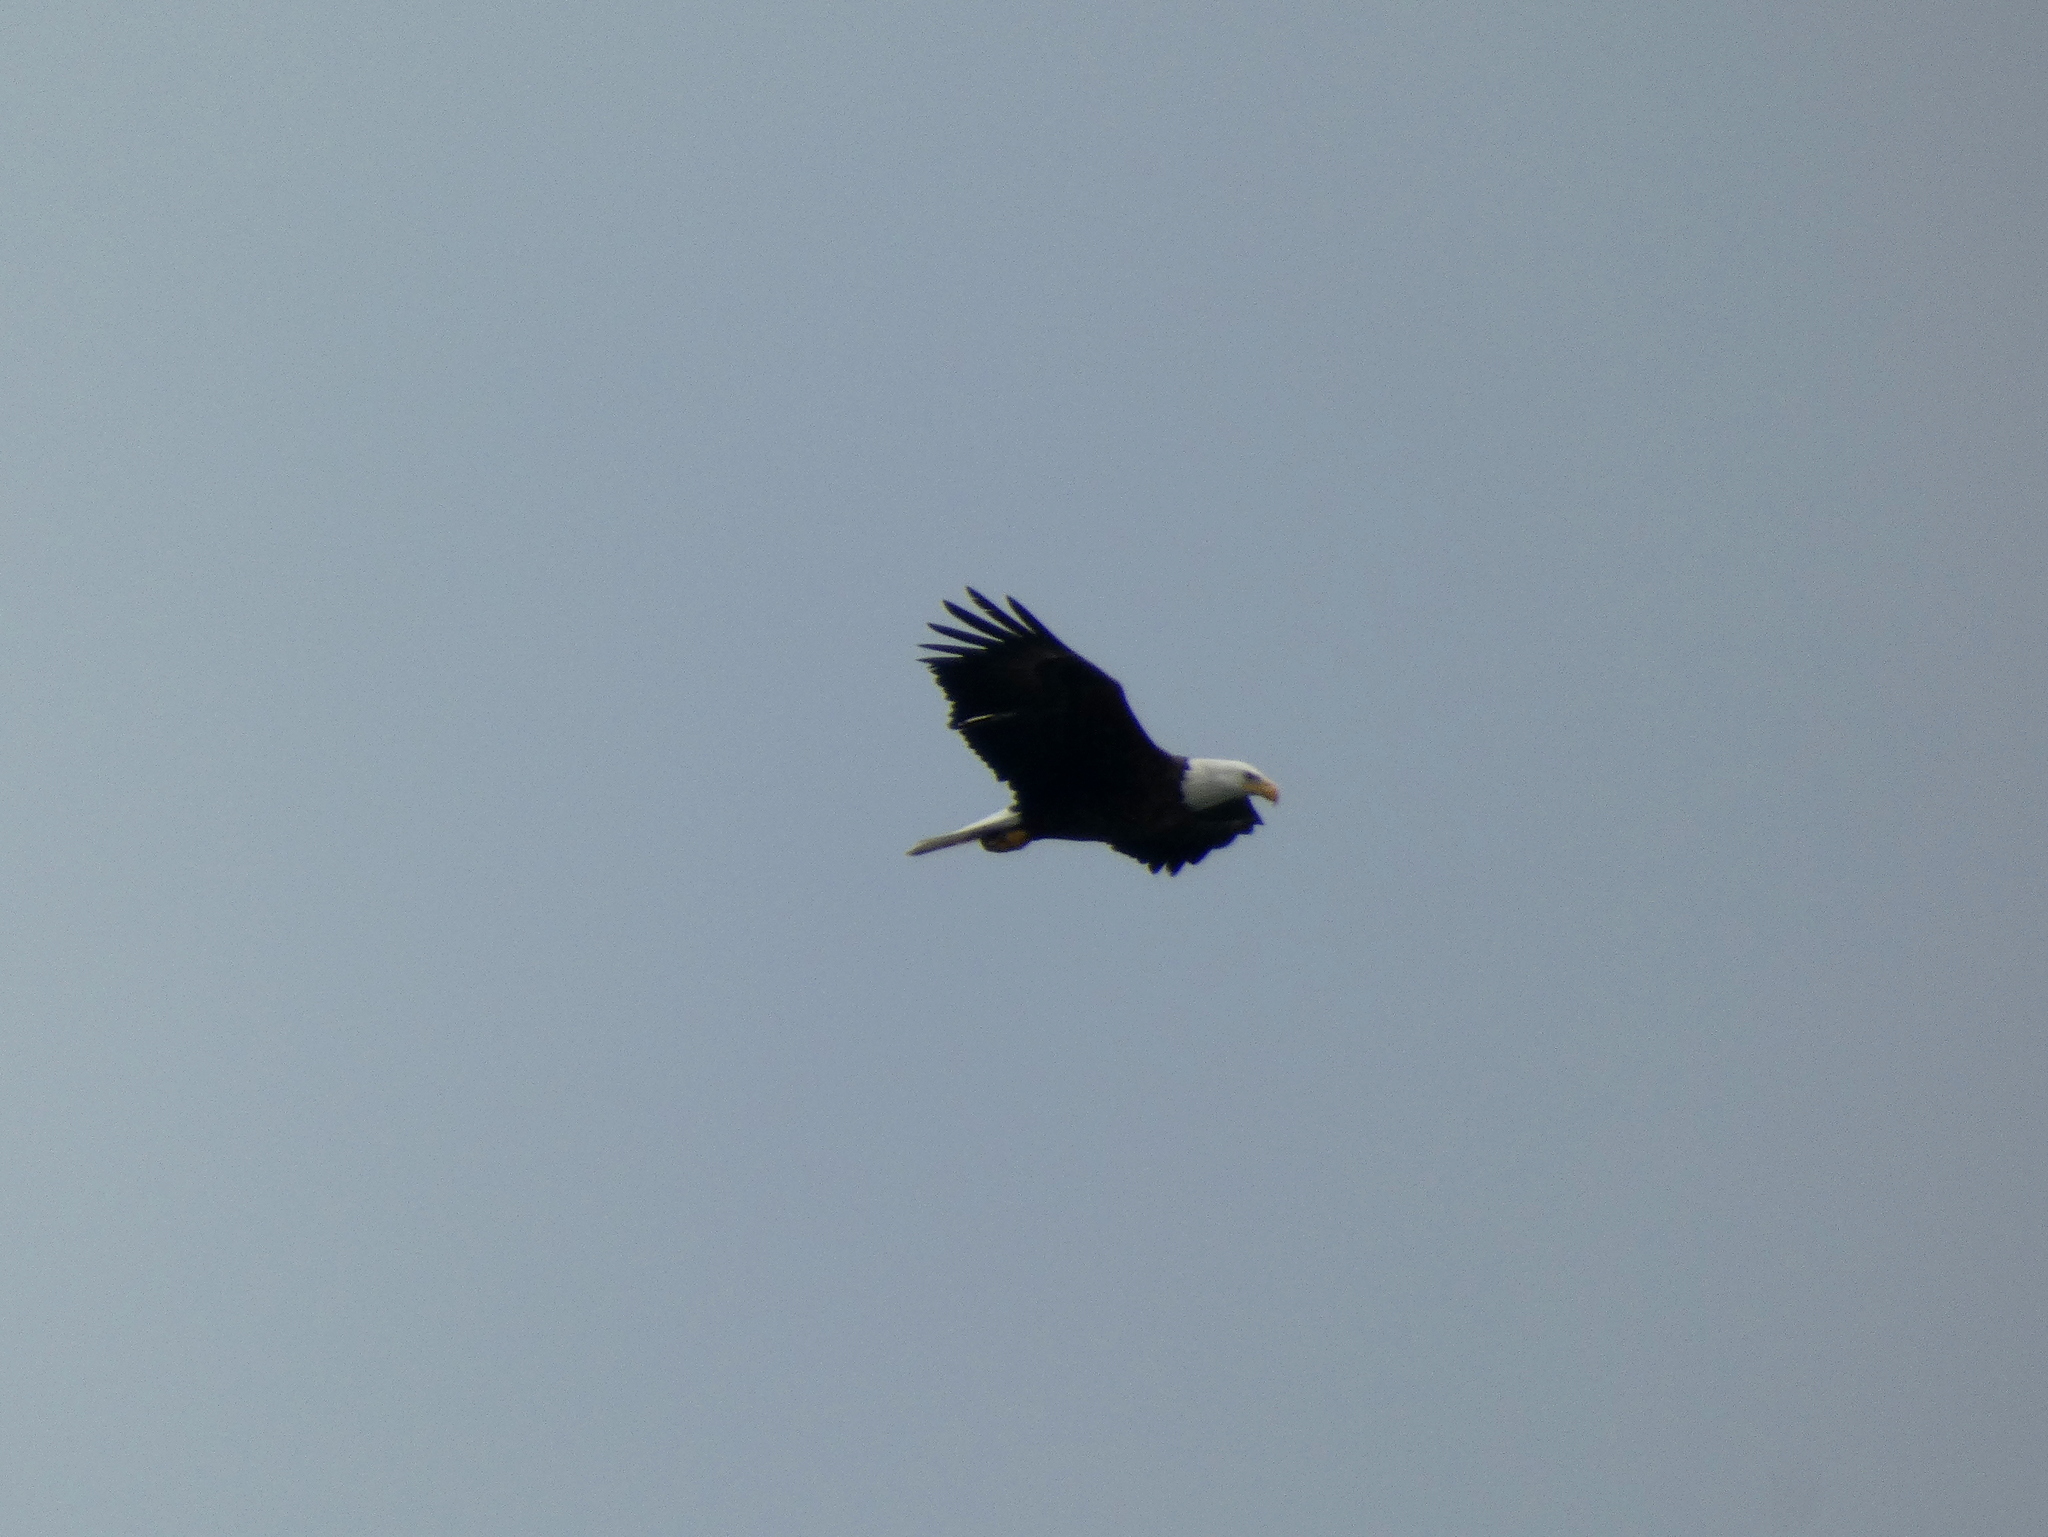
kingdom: Animalia
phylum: Chordata
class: Aves
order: Accipitriformes
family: Accipitridae
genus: Haliaeetus
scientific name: Haliaeetus leucocephalus
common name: Bald eagle
